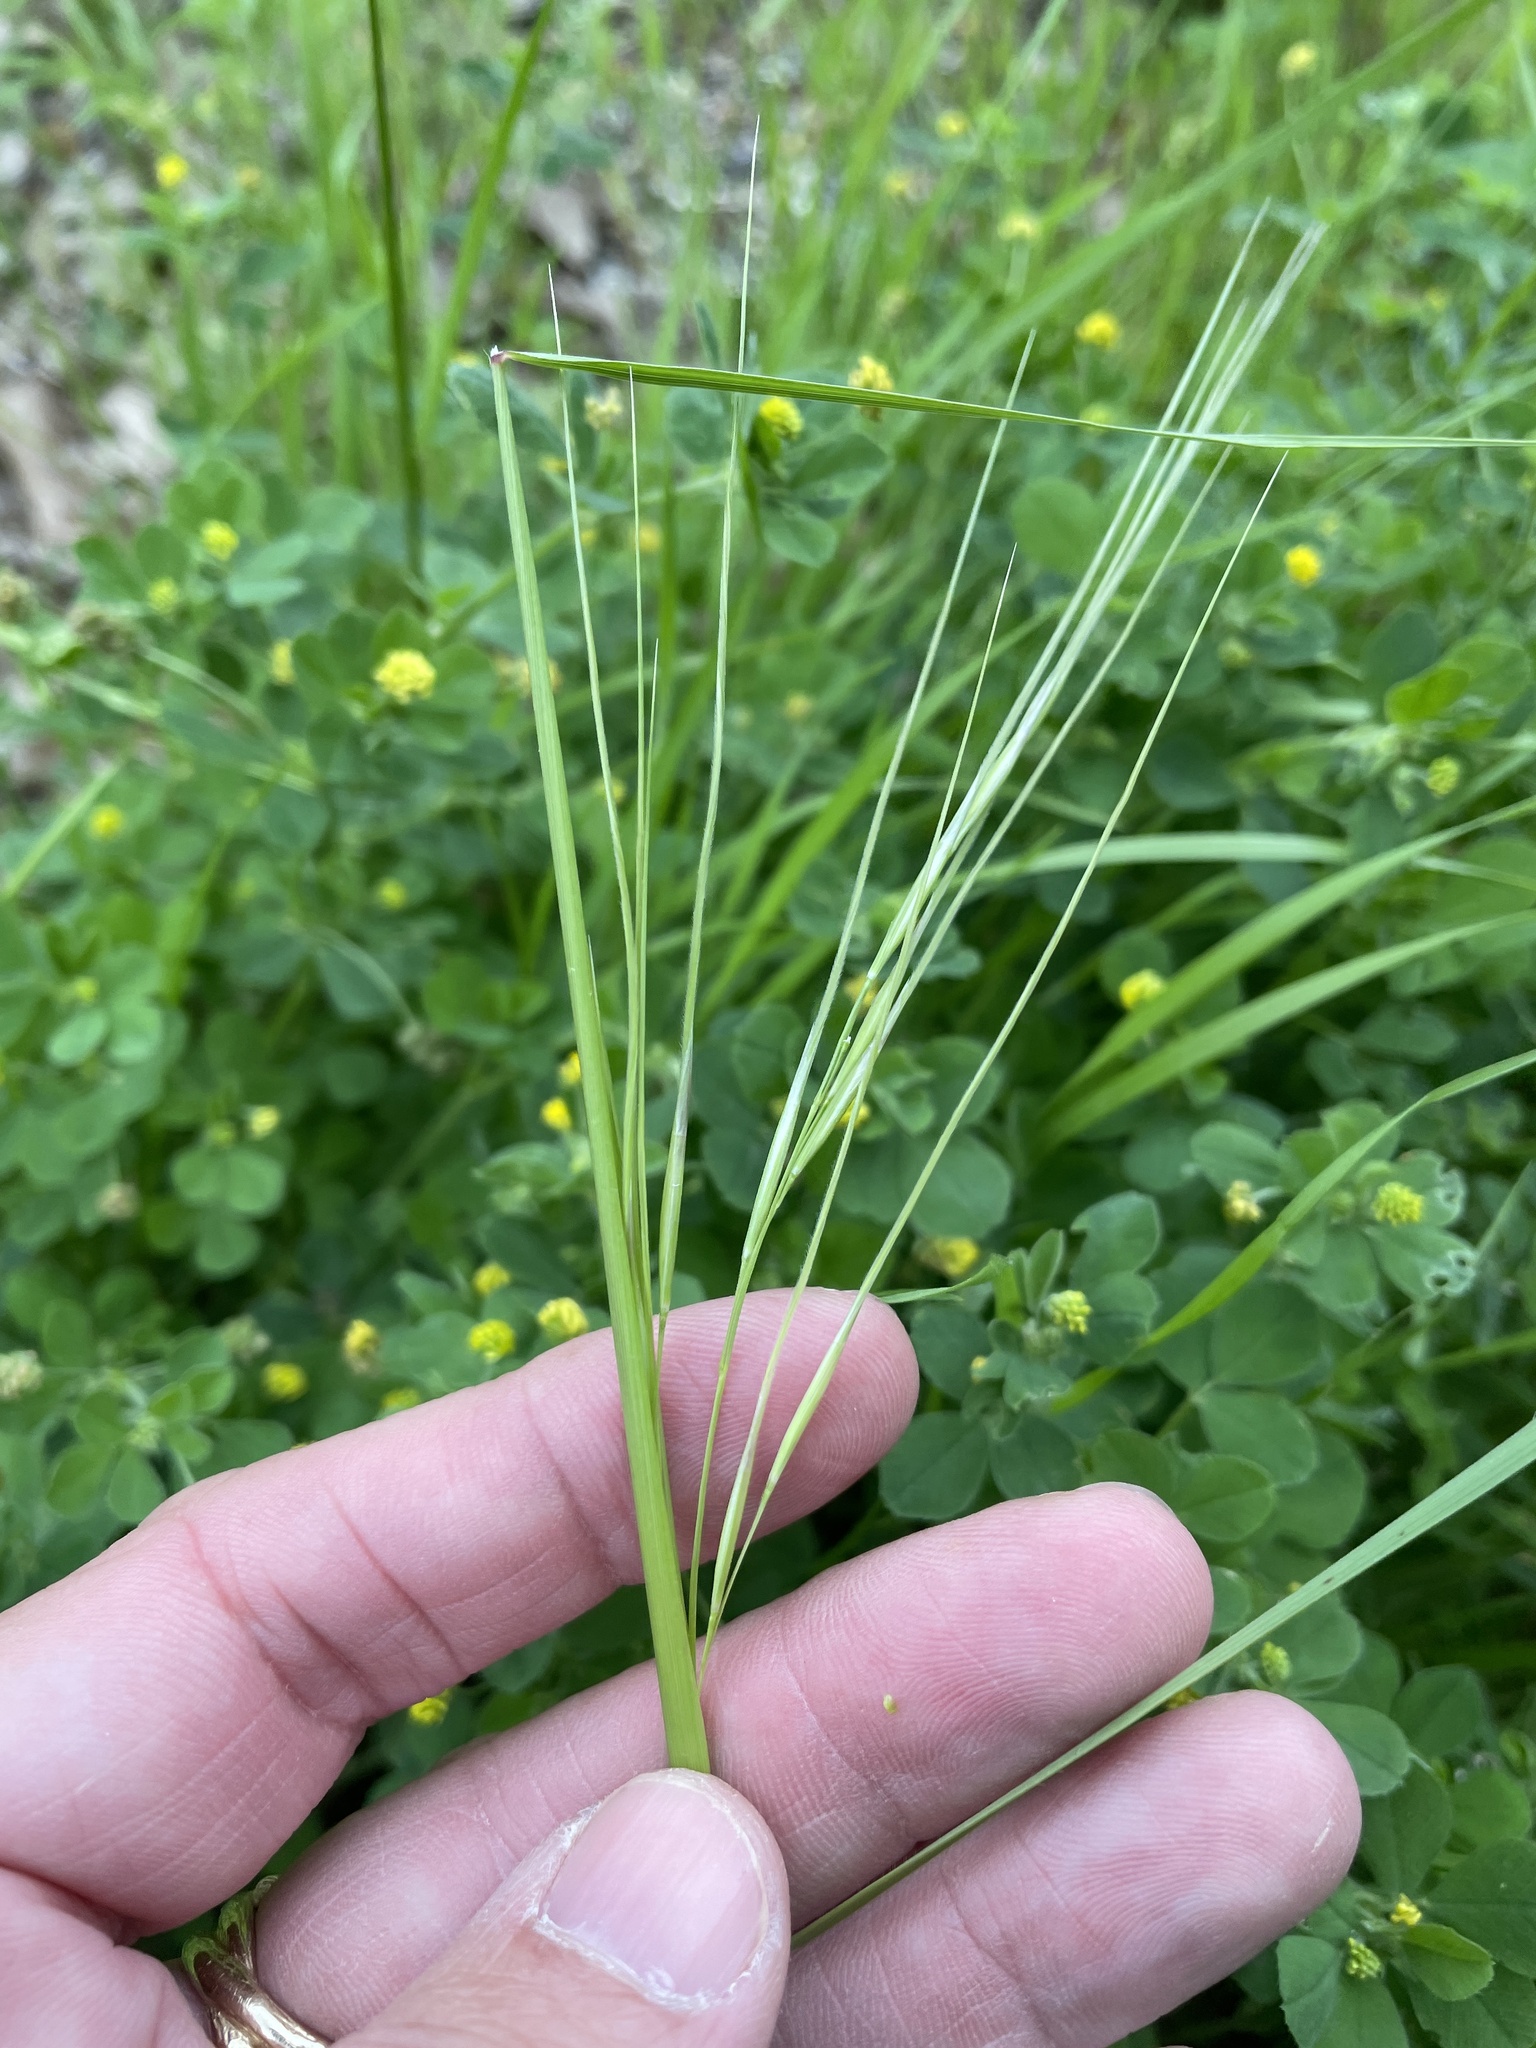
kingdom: Plantae
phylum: Tracheophyta
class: Liliopsida
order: Poales
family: Poaceae
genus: Nassella
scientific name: Nassella leucotricha
